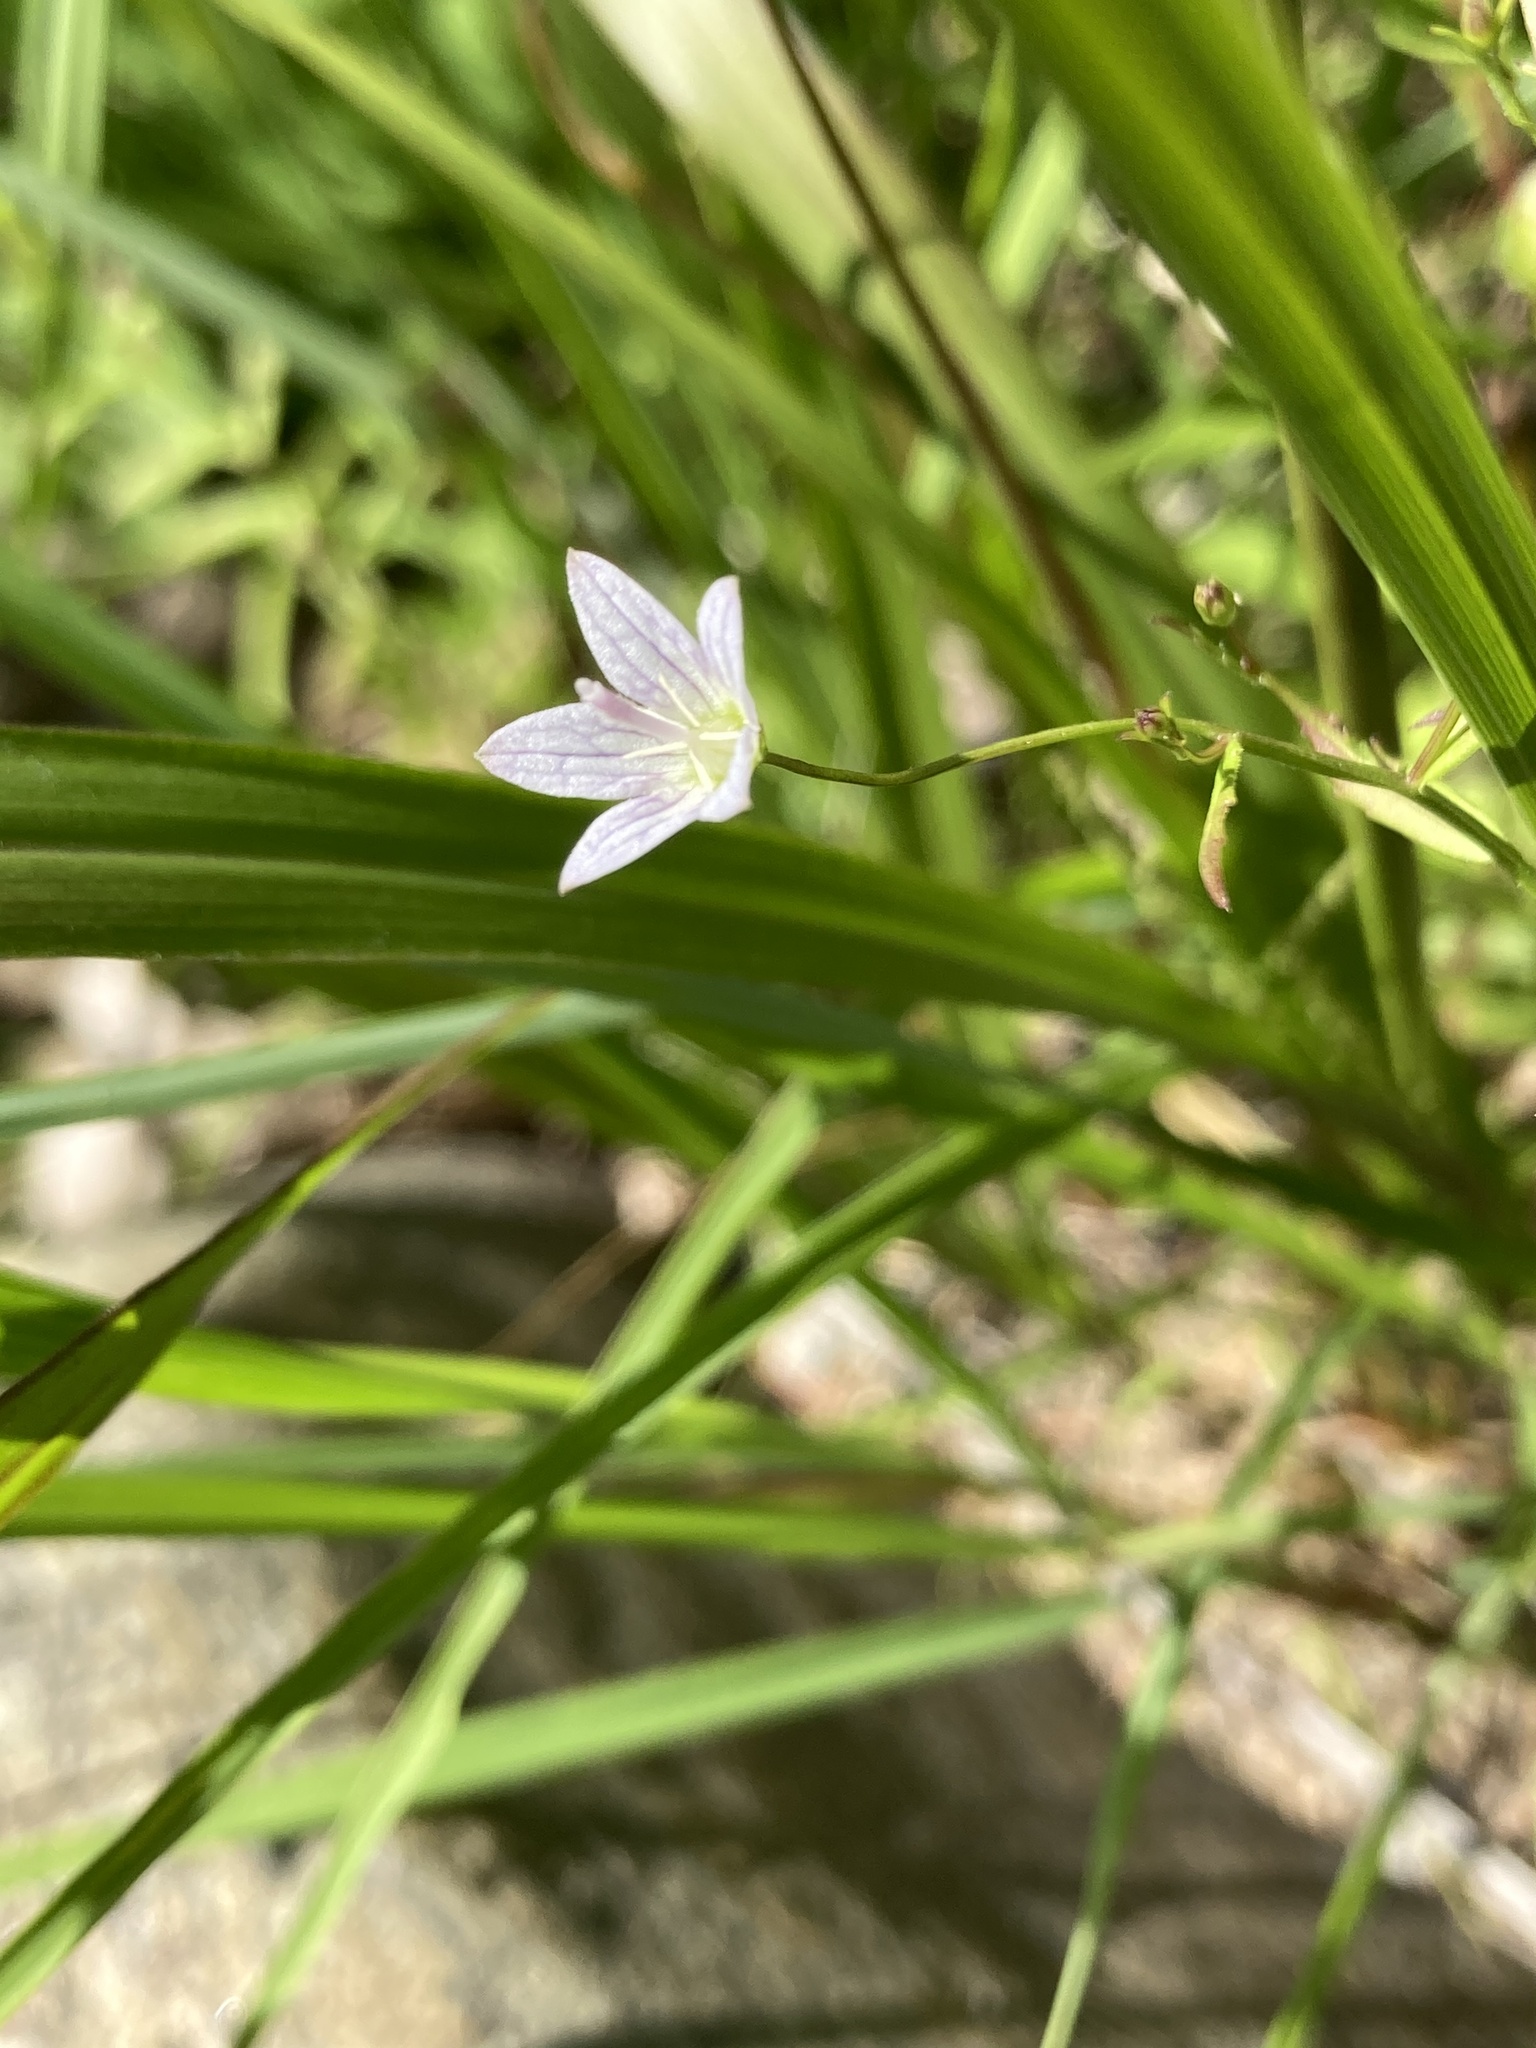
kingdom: Plantae
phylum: Tracheophyta
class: Magnoliopsida
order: Asterales
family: Campanulaceae
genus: Palustricodon
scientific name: Palustricodon aparinoides
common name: Bedstraw bellflower
